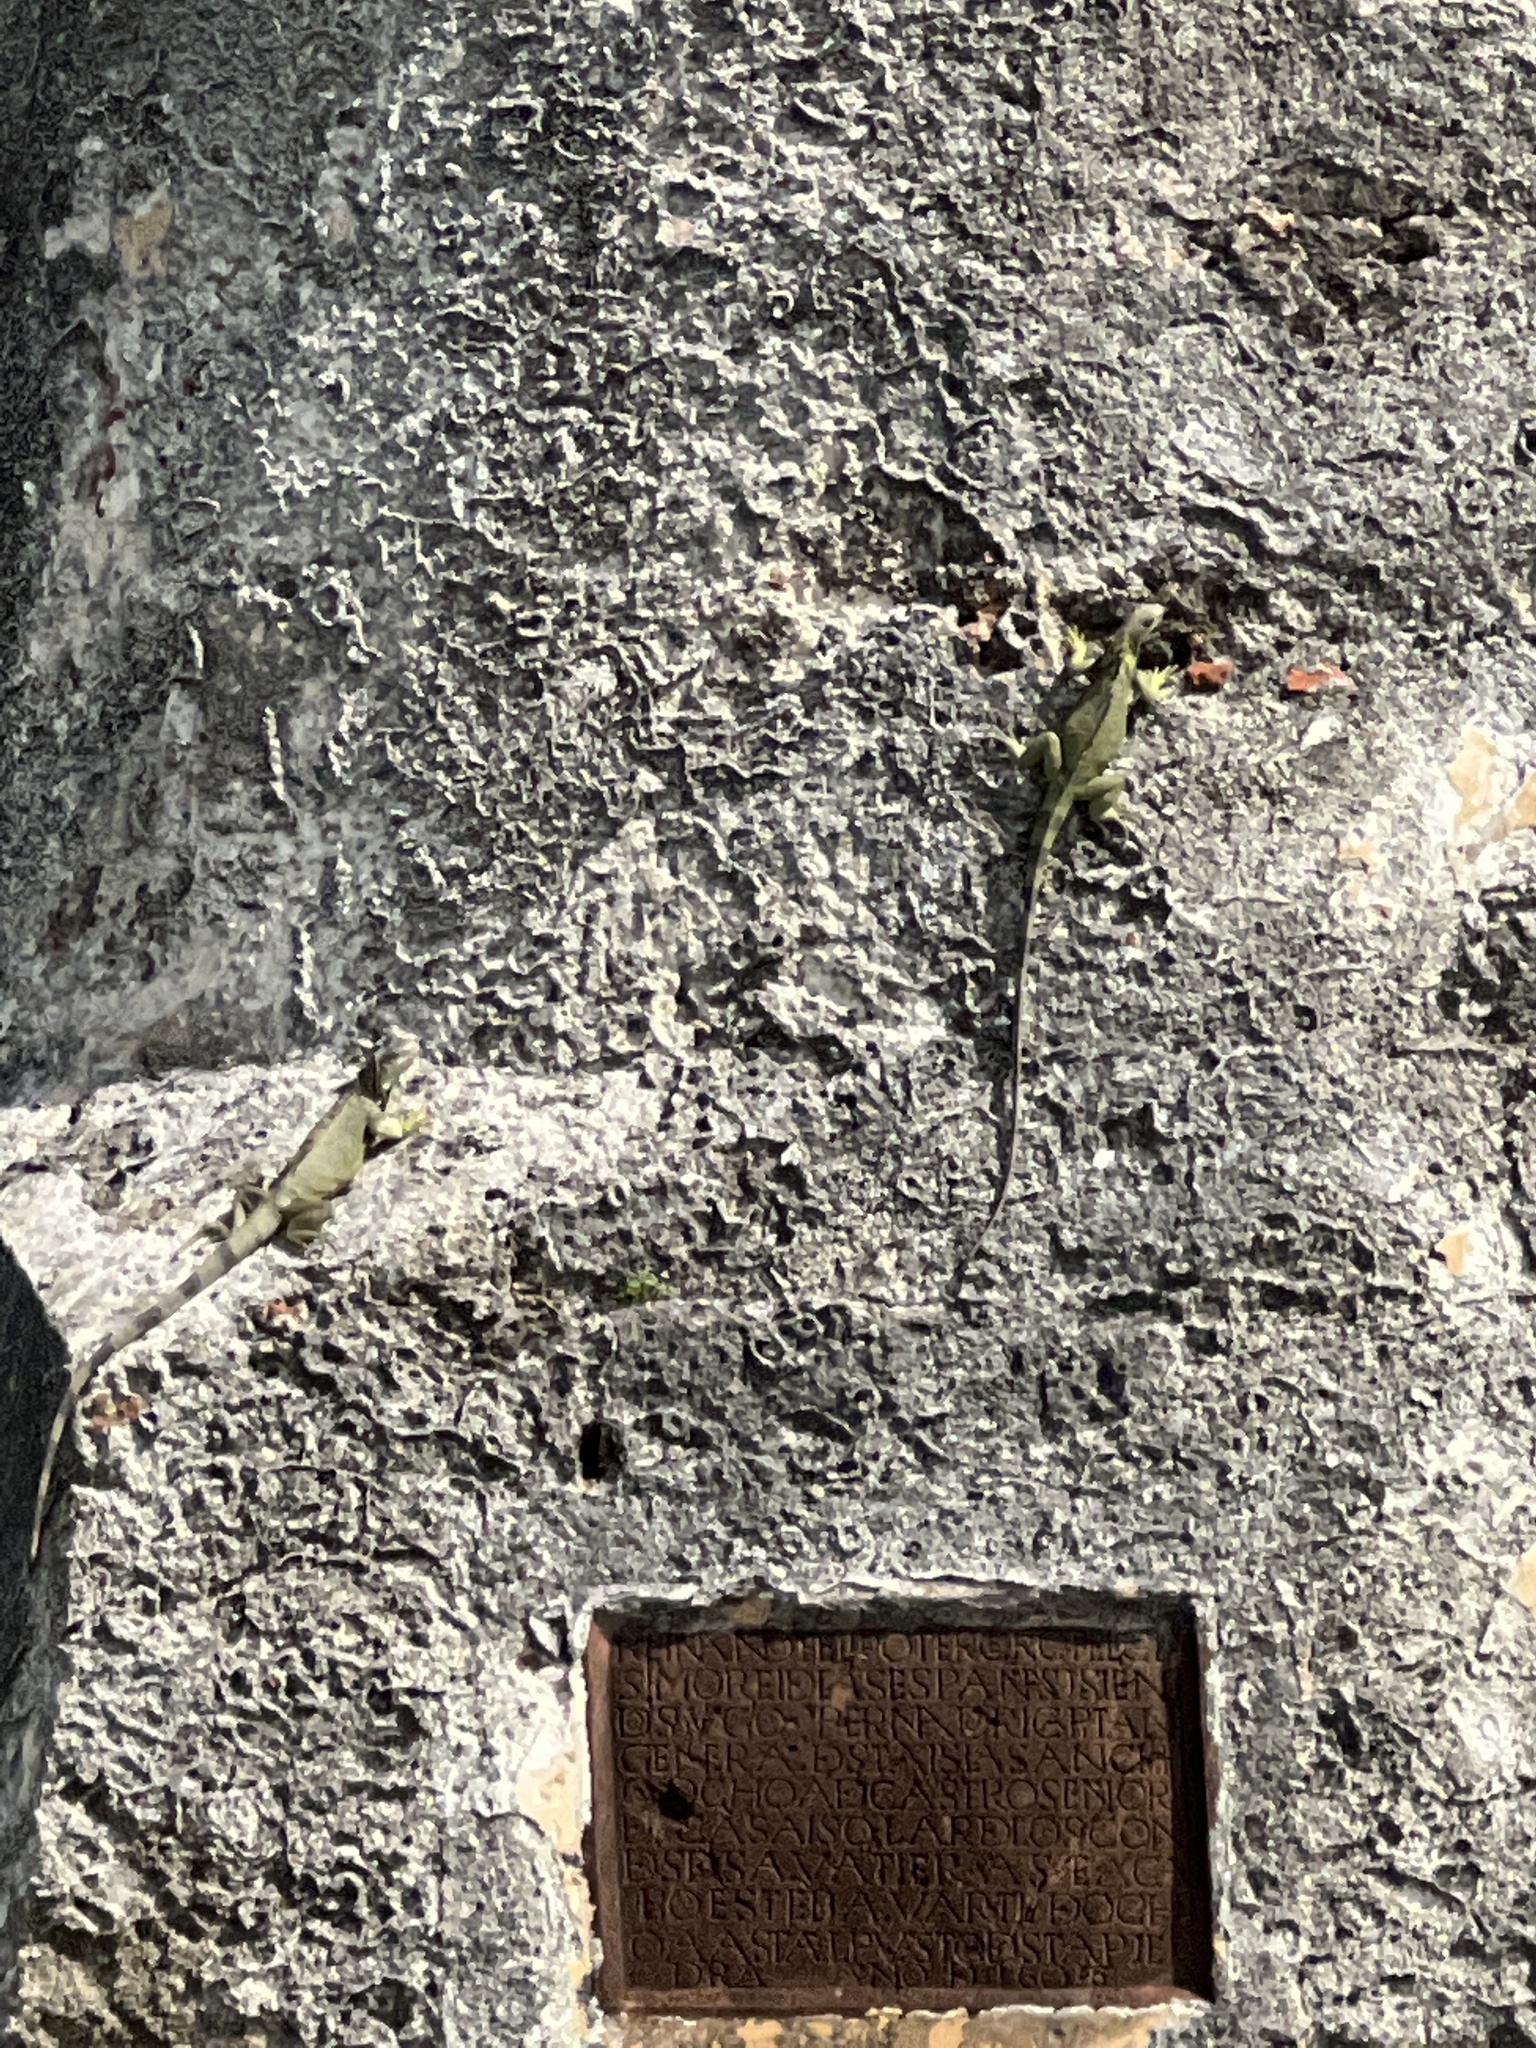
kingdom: Animalia
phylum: Chordata
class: Squamata
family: Iguanidae
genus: Iguana
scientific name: Iguana iguana
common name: Green iguana
